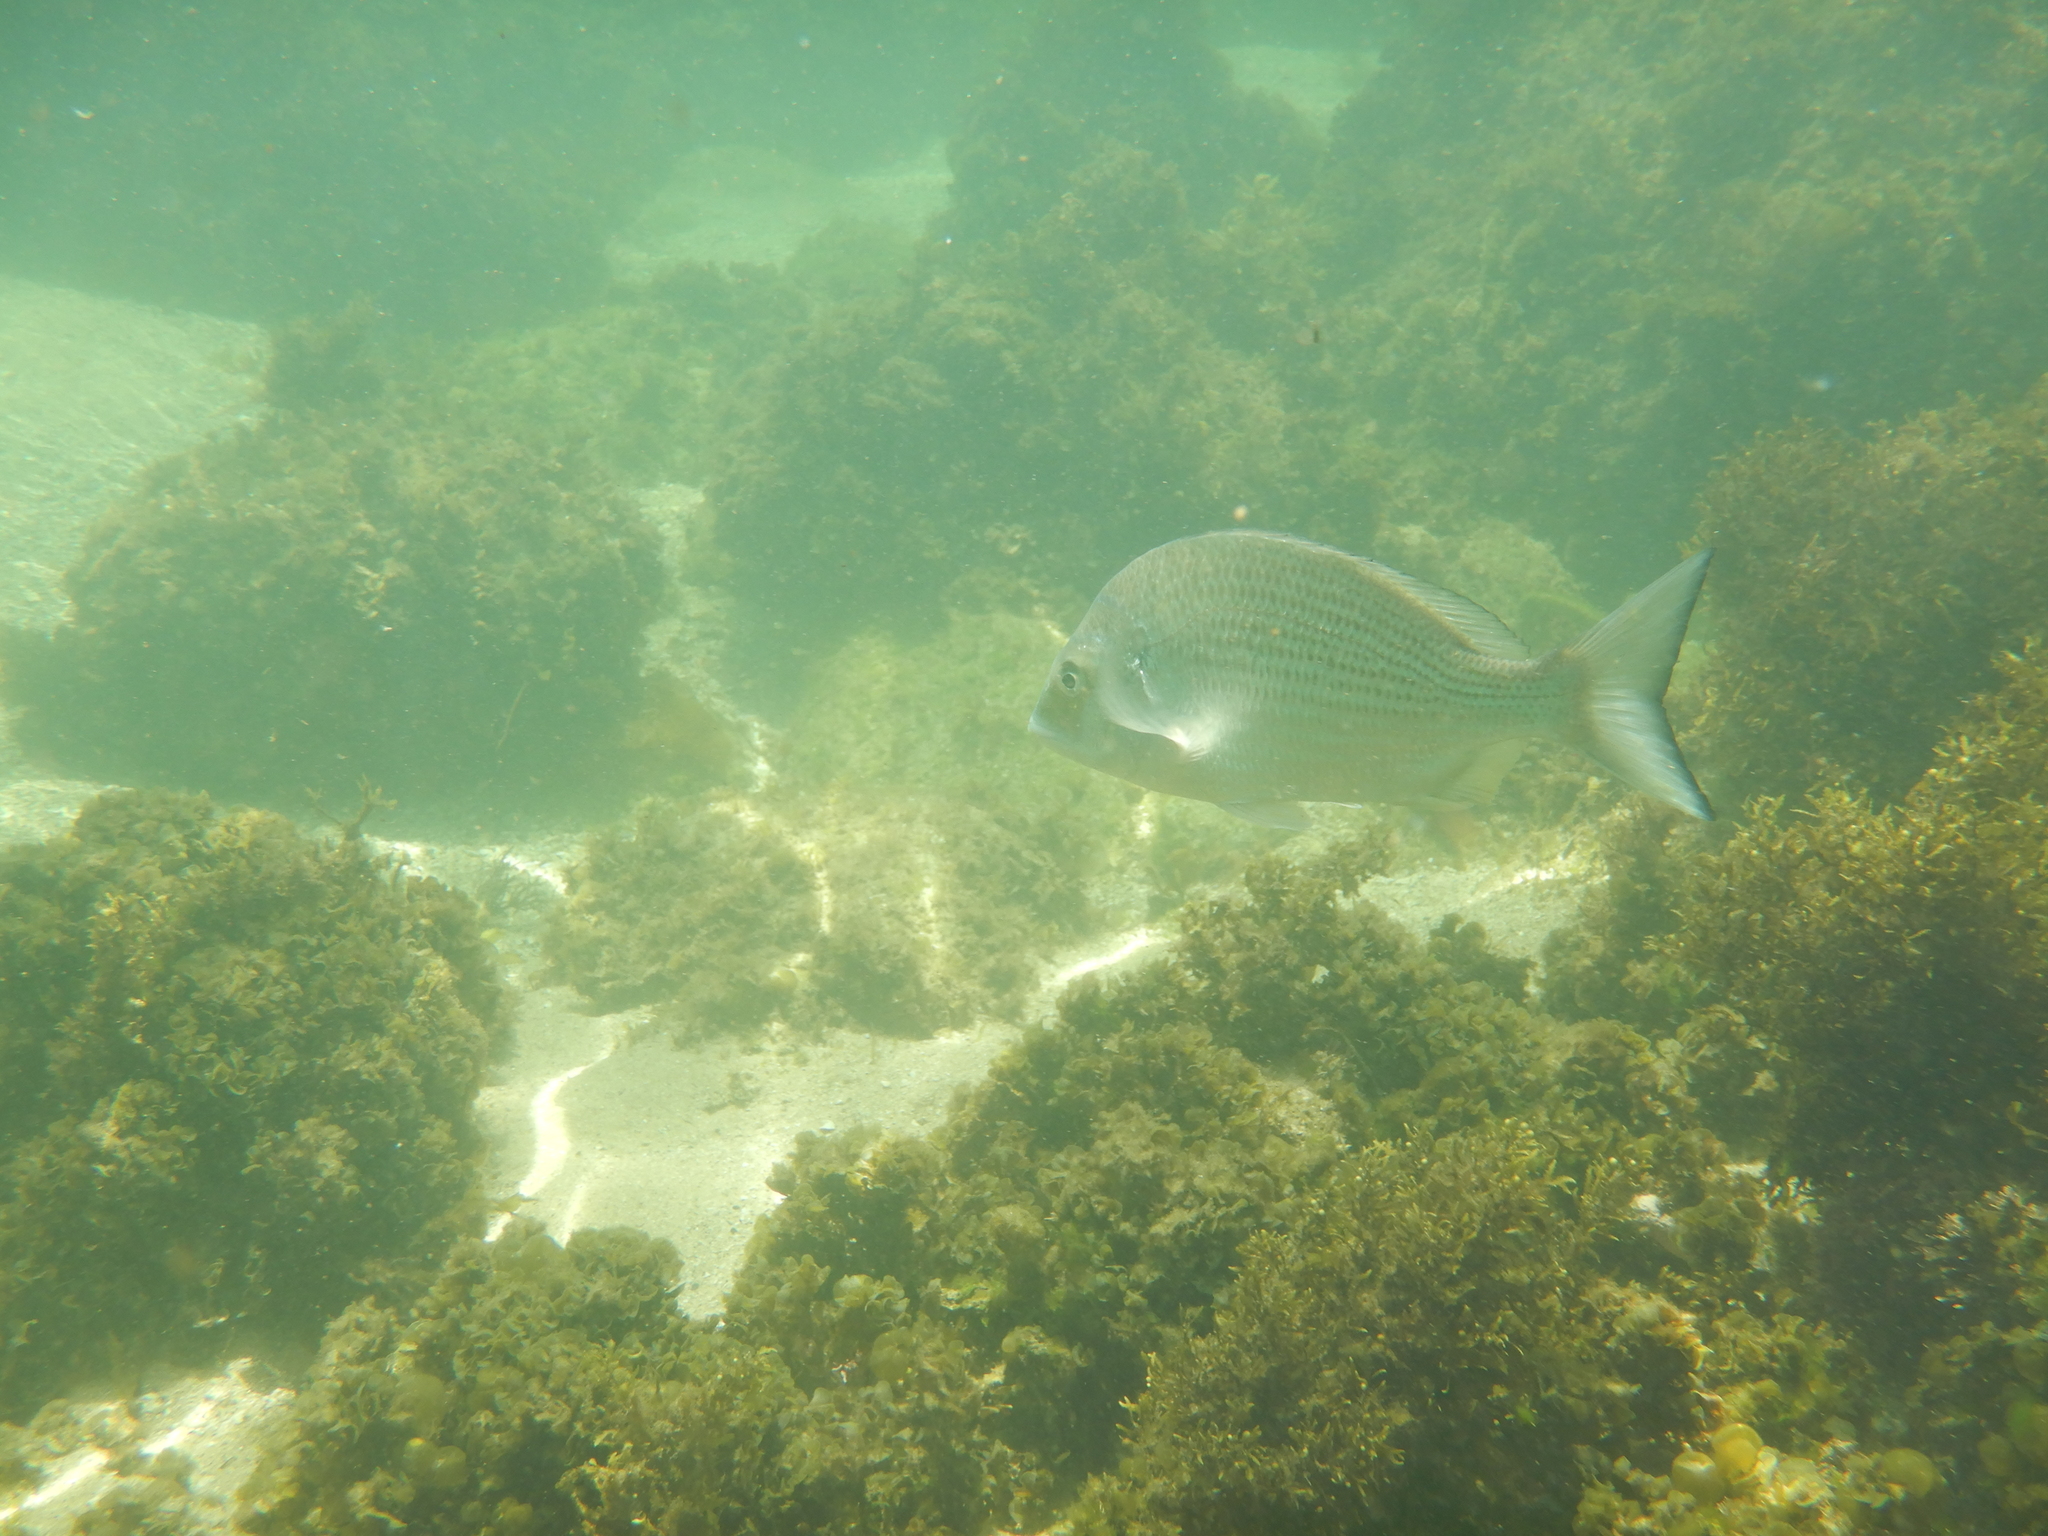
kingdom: Animalia
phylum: Chordata
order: Perciformes
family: Sparidae
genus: Acanthopagrus
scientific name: Acanthopagrus australis
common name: Surf bream
